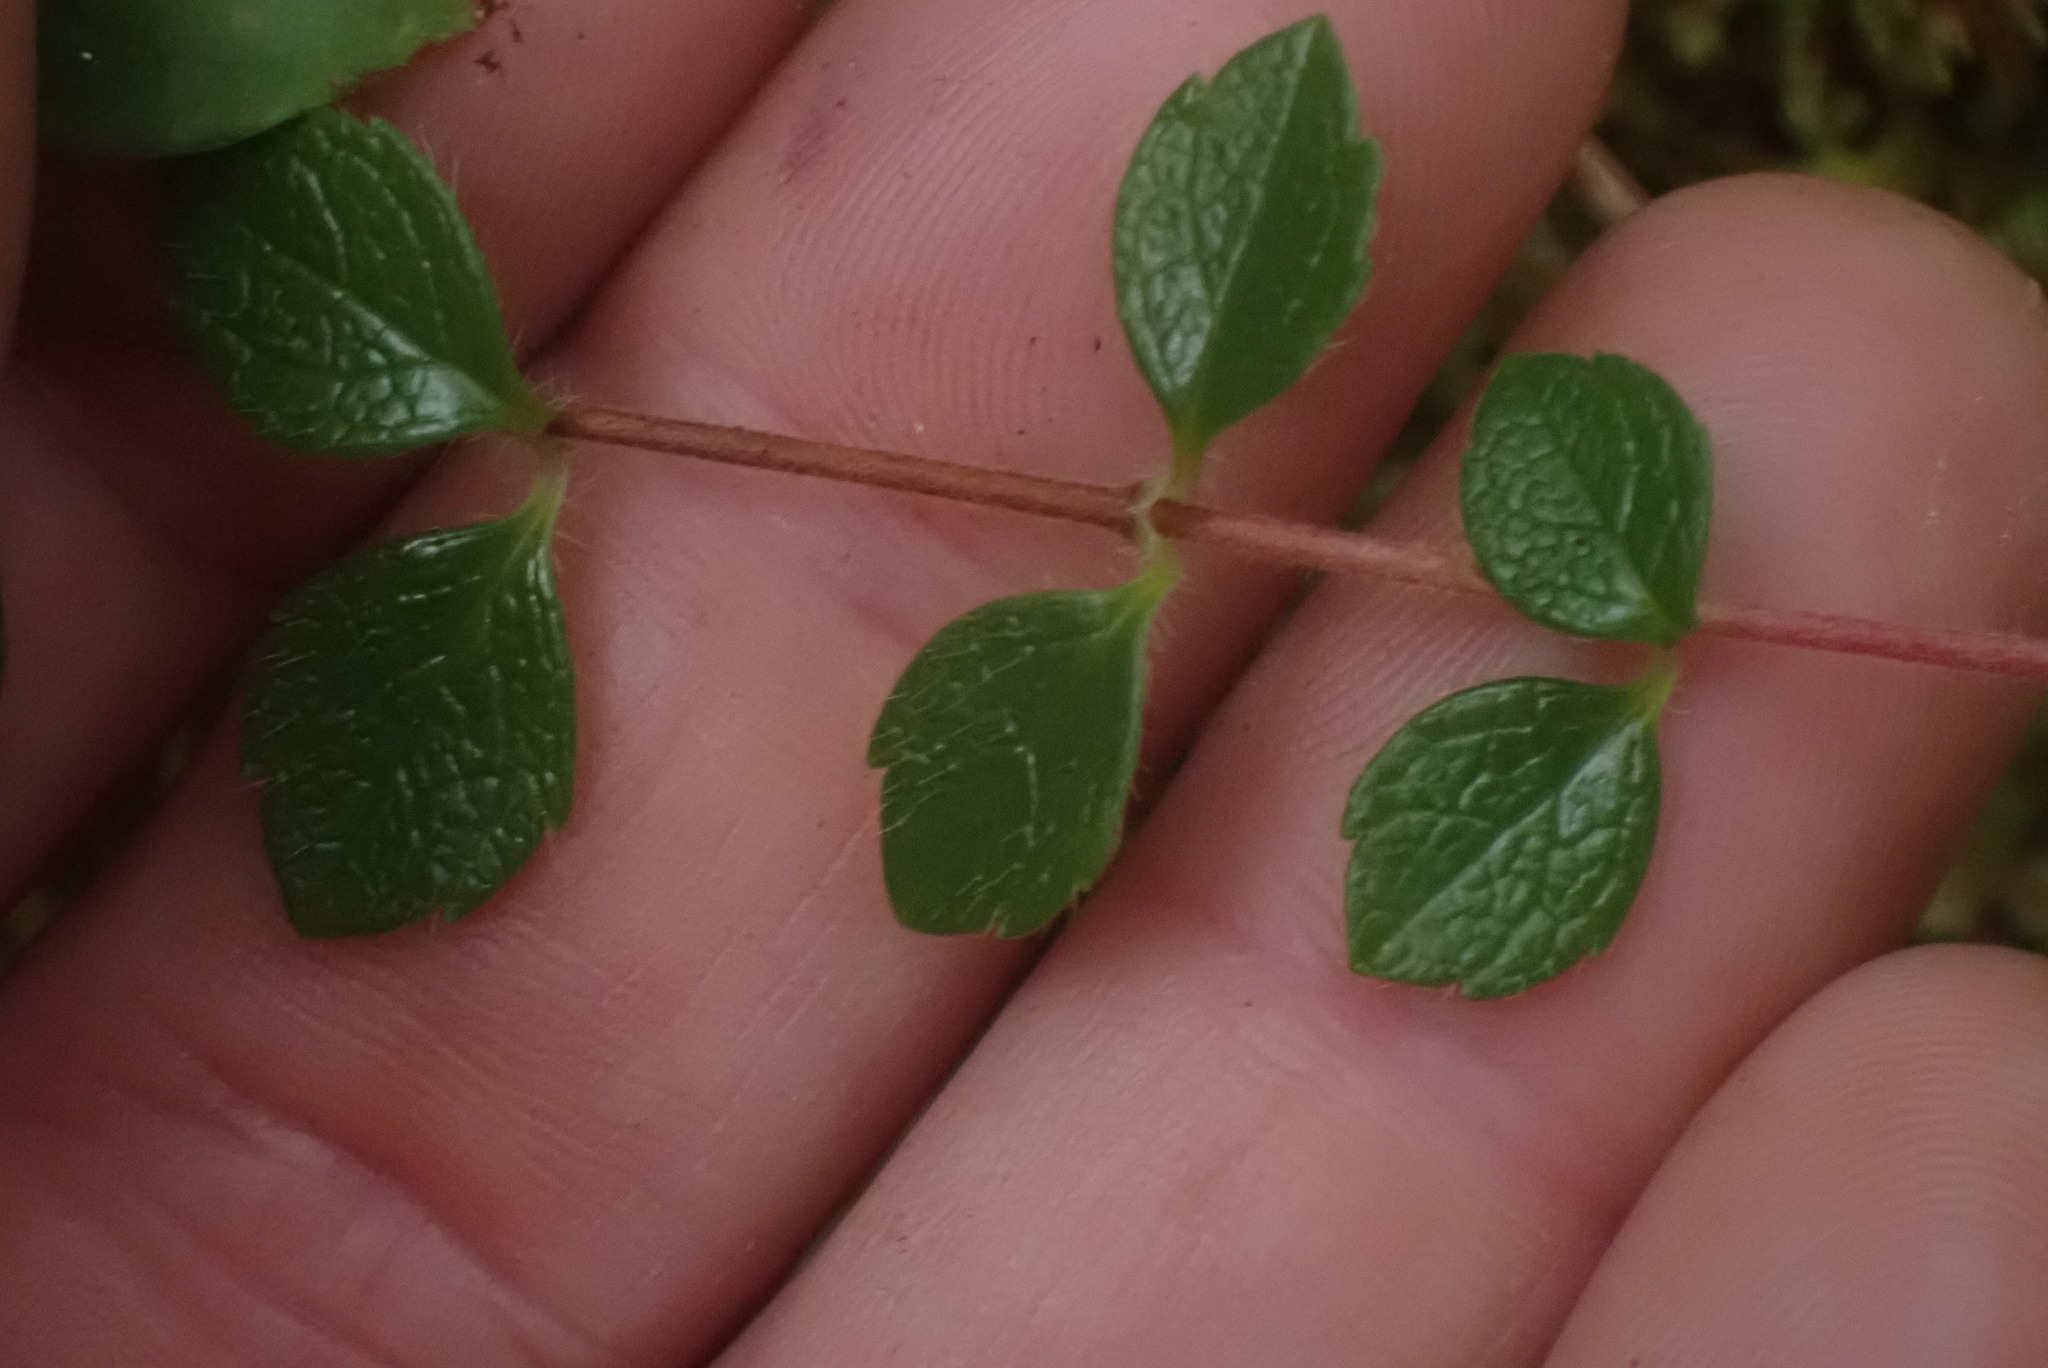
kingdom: Plantae
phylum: Tracheophyta
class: Magnoliopsida
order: Dipsacales
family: Caprifoliaceae
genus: Linnaea
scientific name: Linnaea borealis
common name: Twinflower
